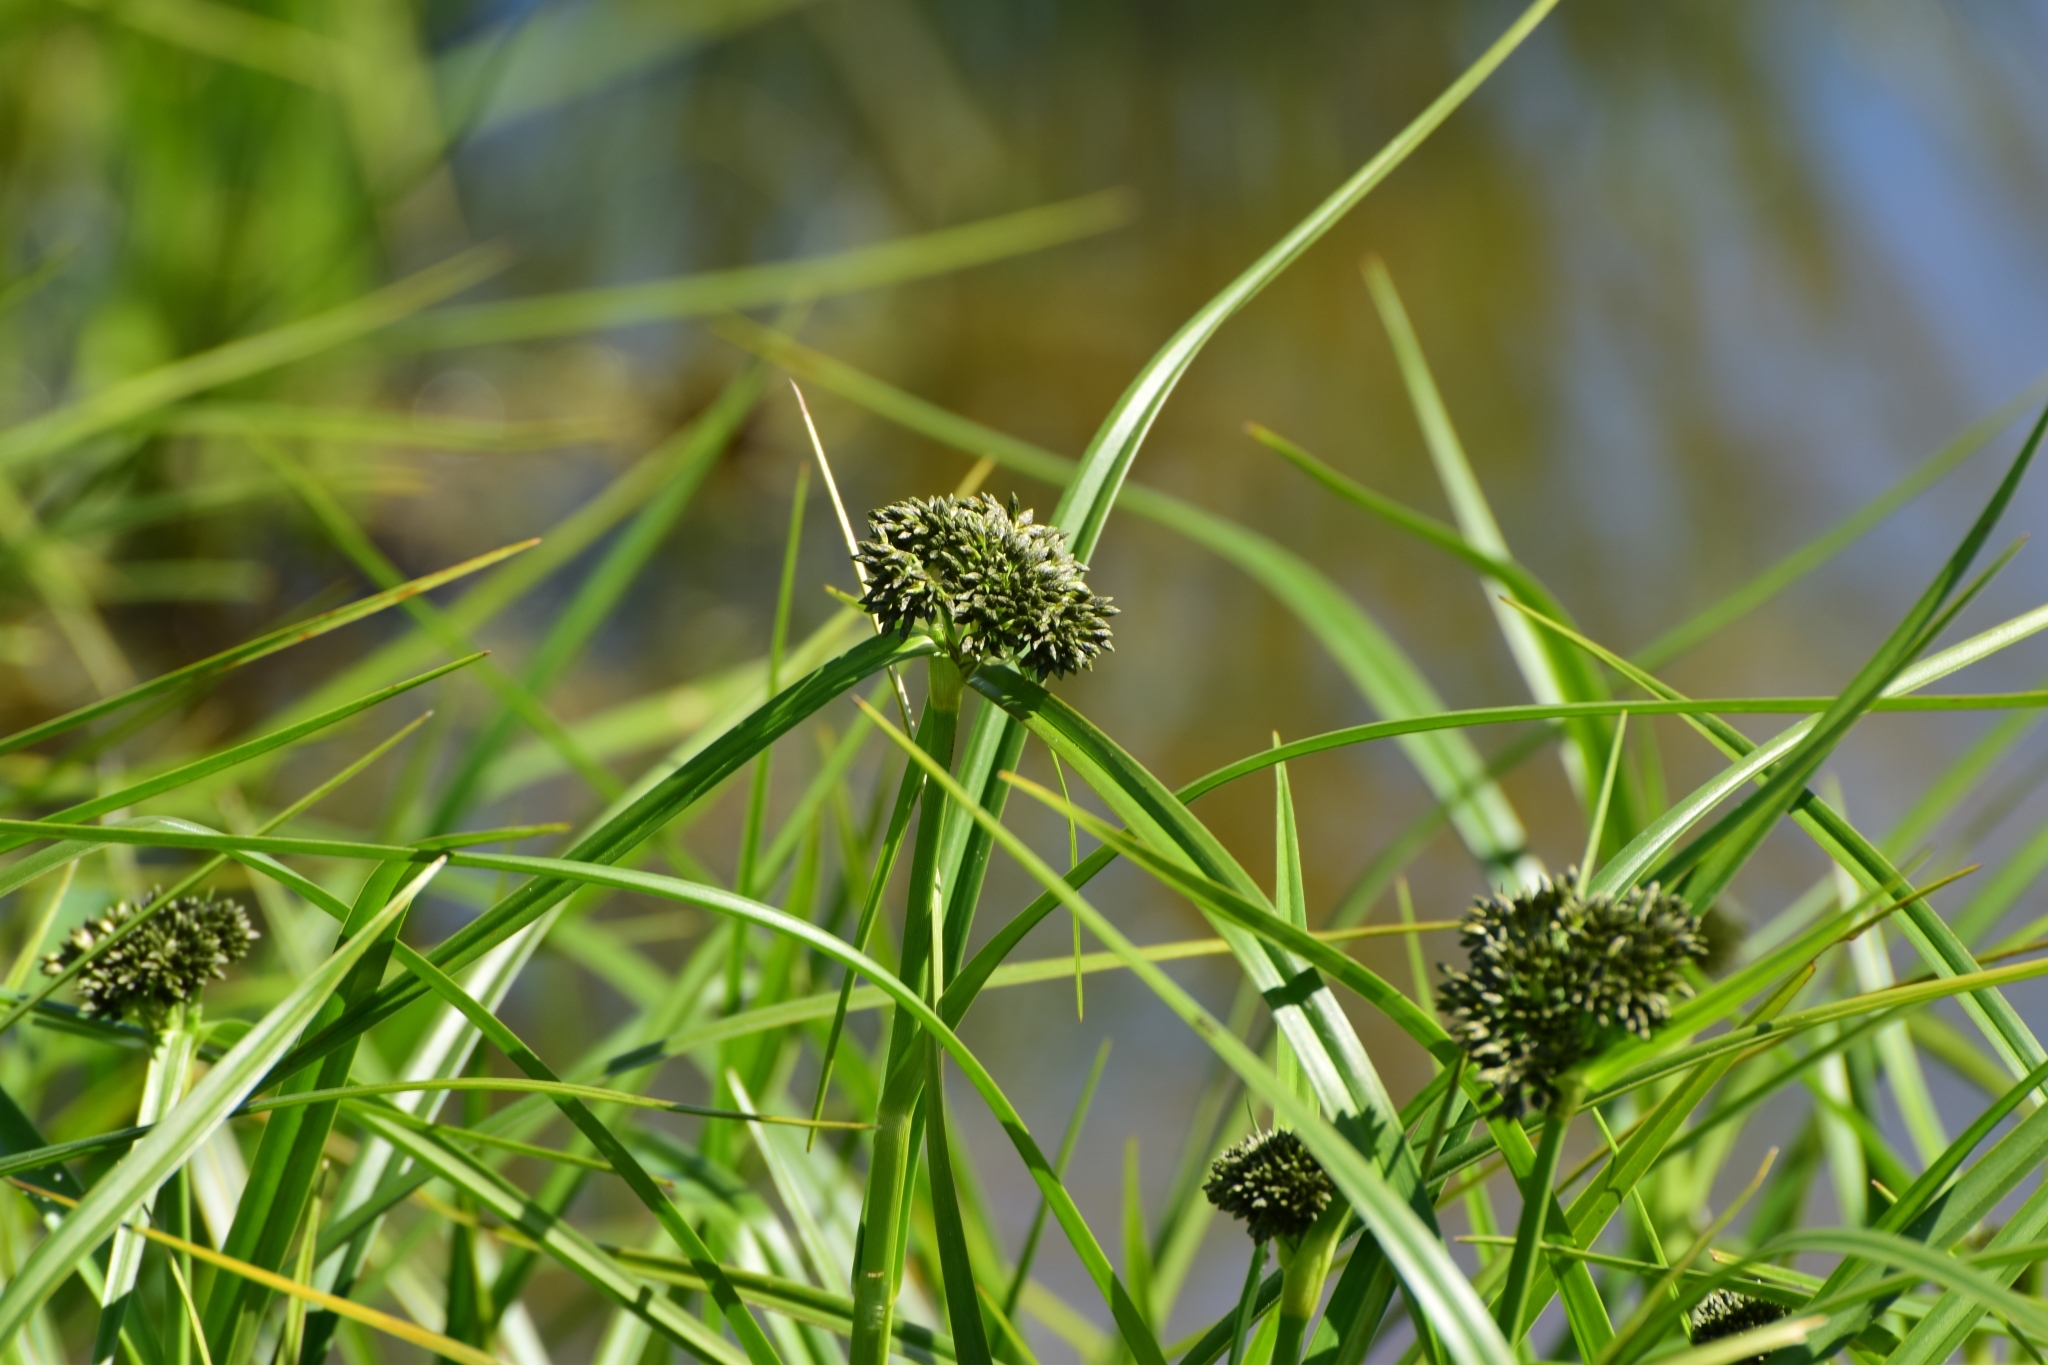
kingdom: Plantae
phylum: Tracheophyta
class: Liliopsida
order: Poales
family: Cyperaceae
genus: Scirpus
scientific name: Scirpus sylvaticus
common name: Wood club-rush
